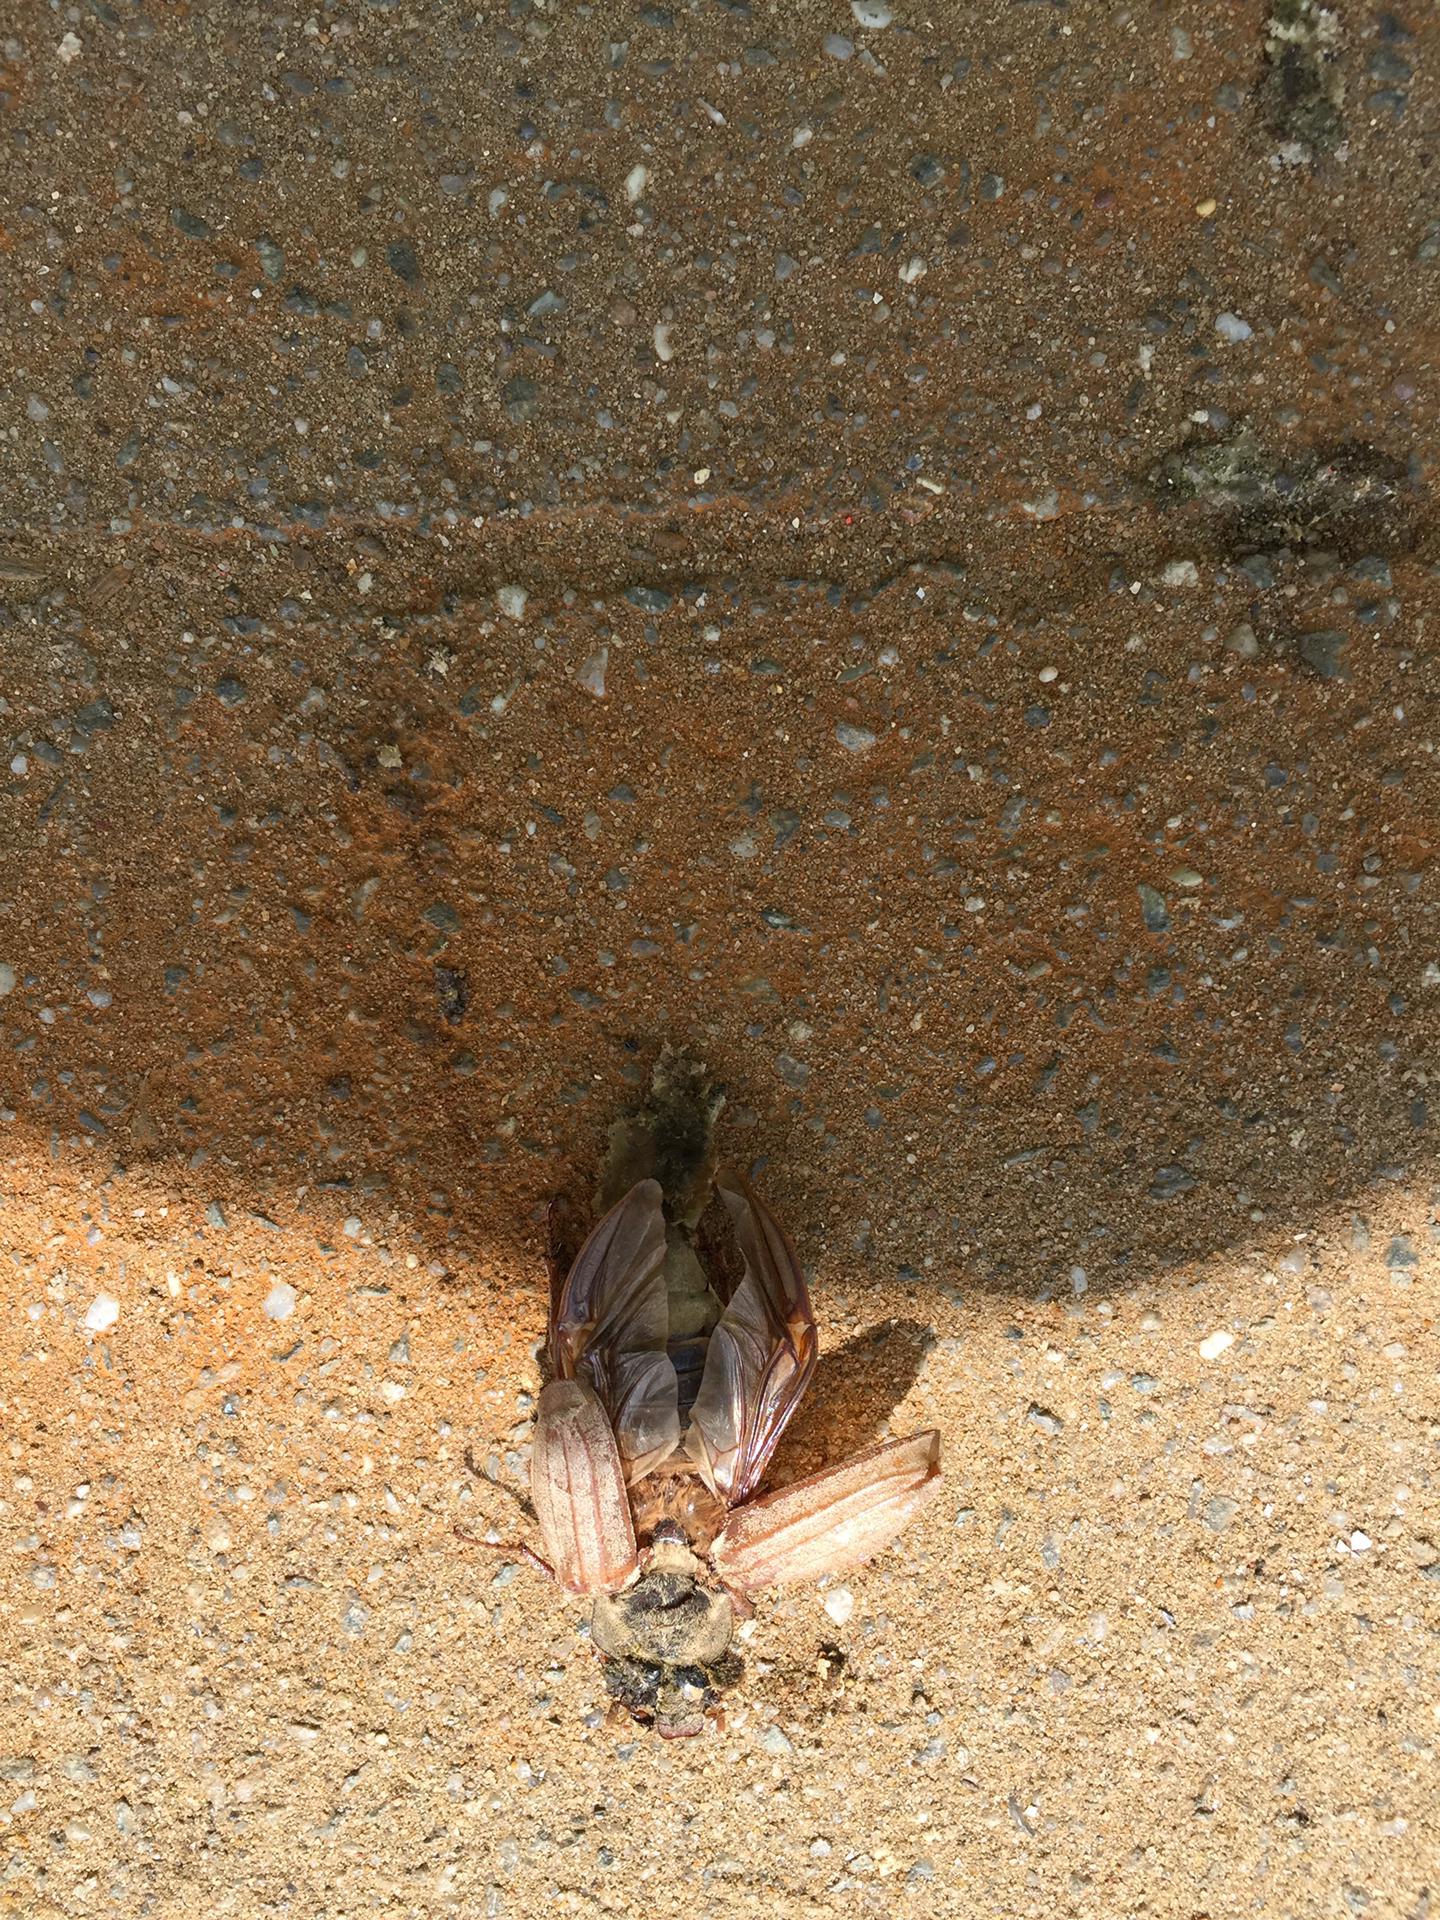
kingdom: Animalia
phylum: Arthropoda
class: Insecta
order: Coleoptera
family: Scarabaeidae
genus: Melolontha
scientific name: Melolontha melolontha
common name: Cockchafer maybeetle
